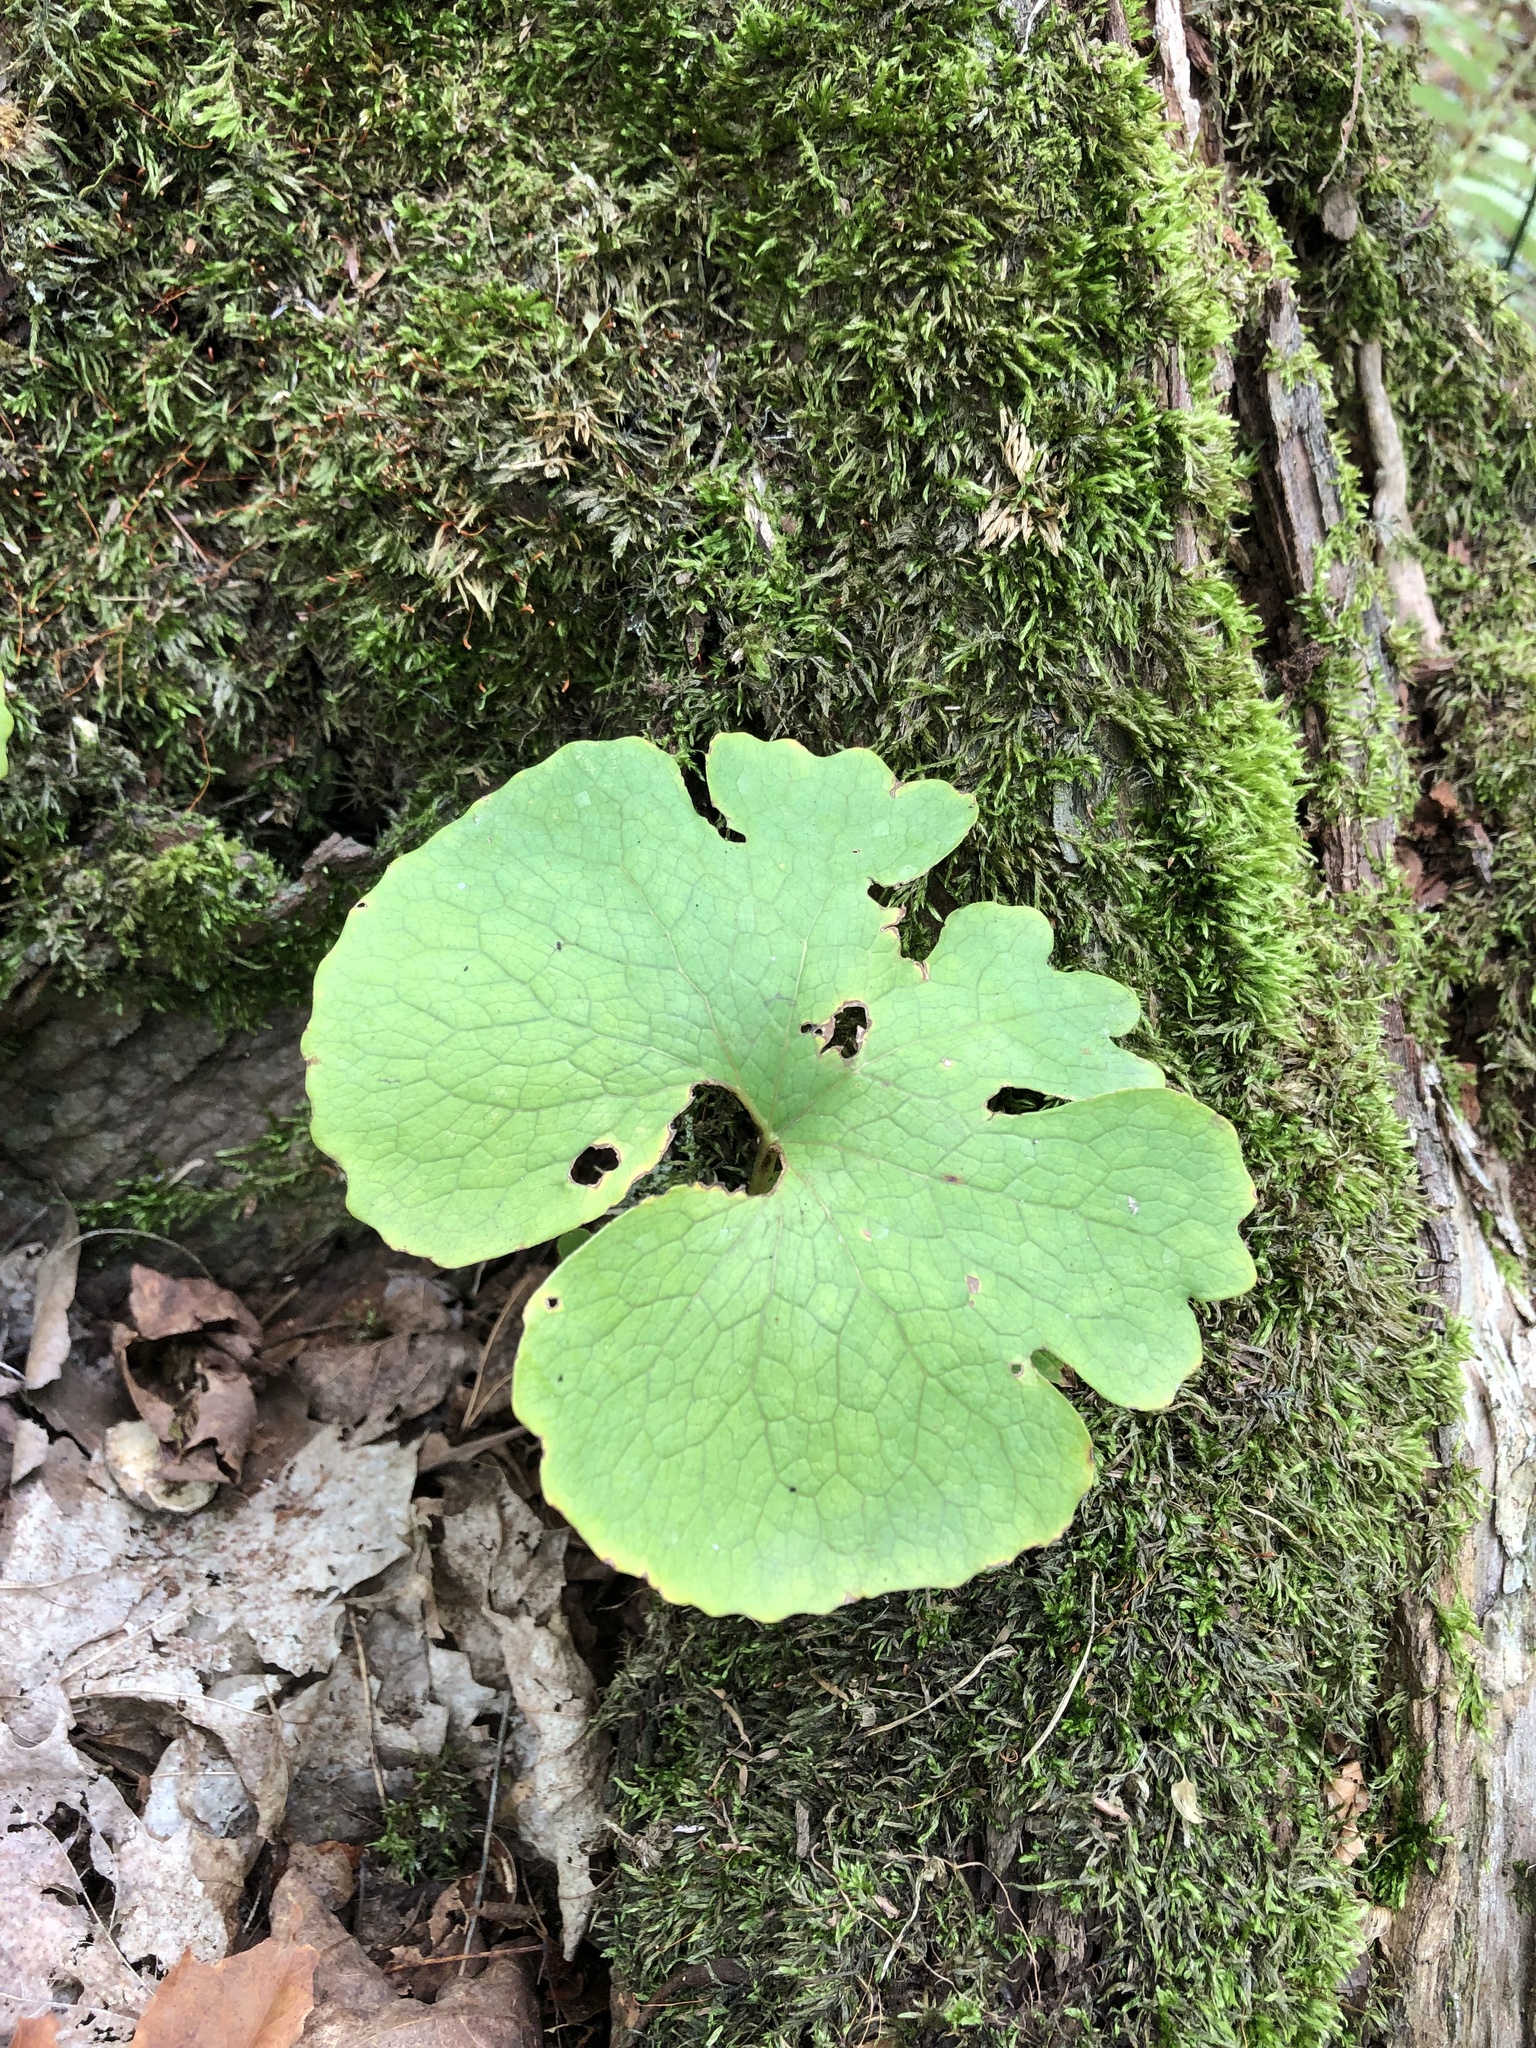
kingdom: Plantae
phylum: Tracheophyta
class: Magnoliopsida
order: Ranunculales
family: Papaveraceae
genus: Sanguinaria
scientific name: Sanguinaria canadensis
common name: Bloodroot
